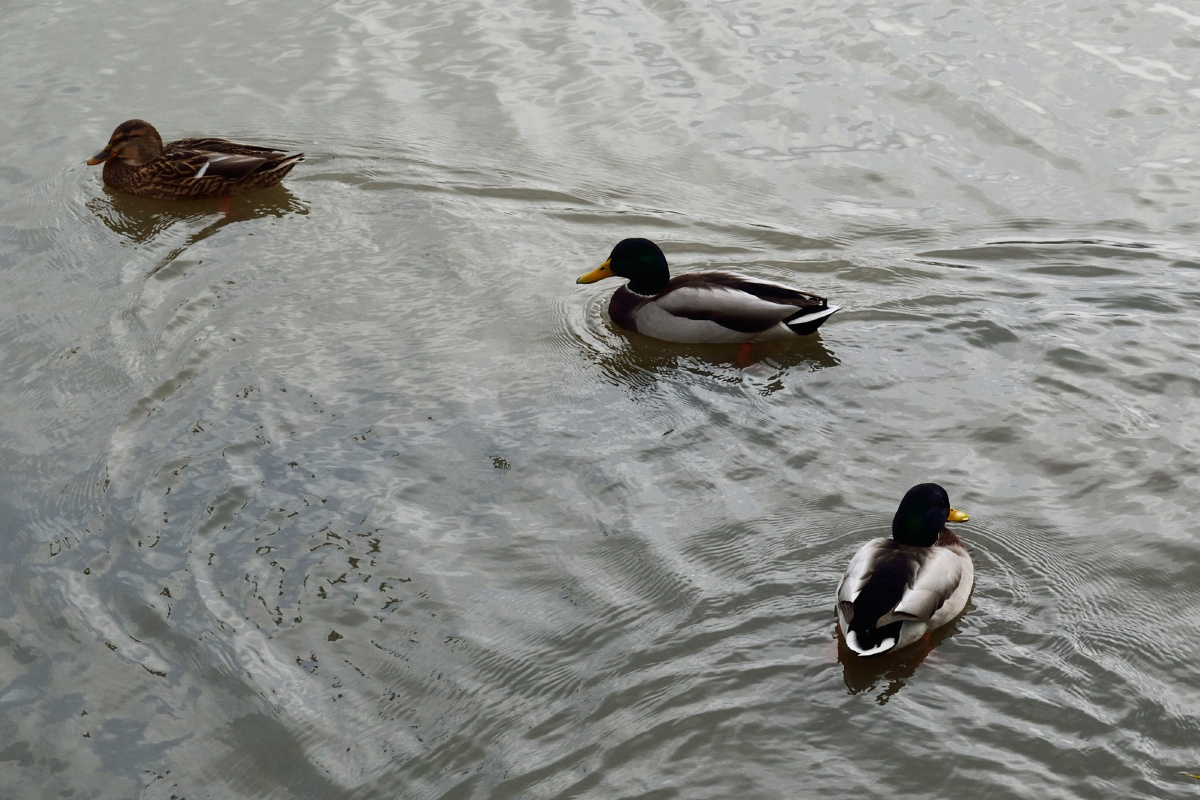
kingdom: Animalia
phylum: Chordata
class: Aves
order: Anseriformes
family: Anatidae
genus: Anas
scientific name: Anas platyrhynchos
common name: Mallard
